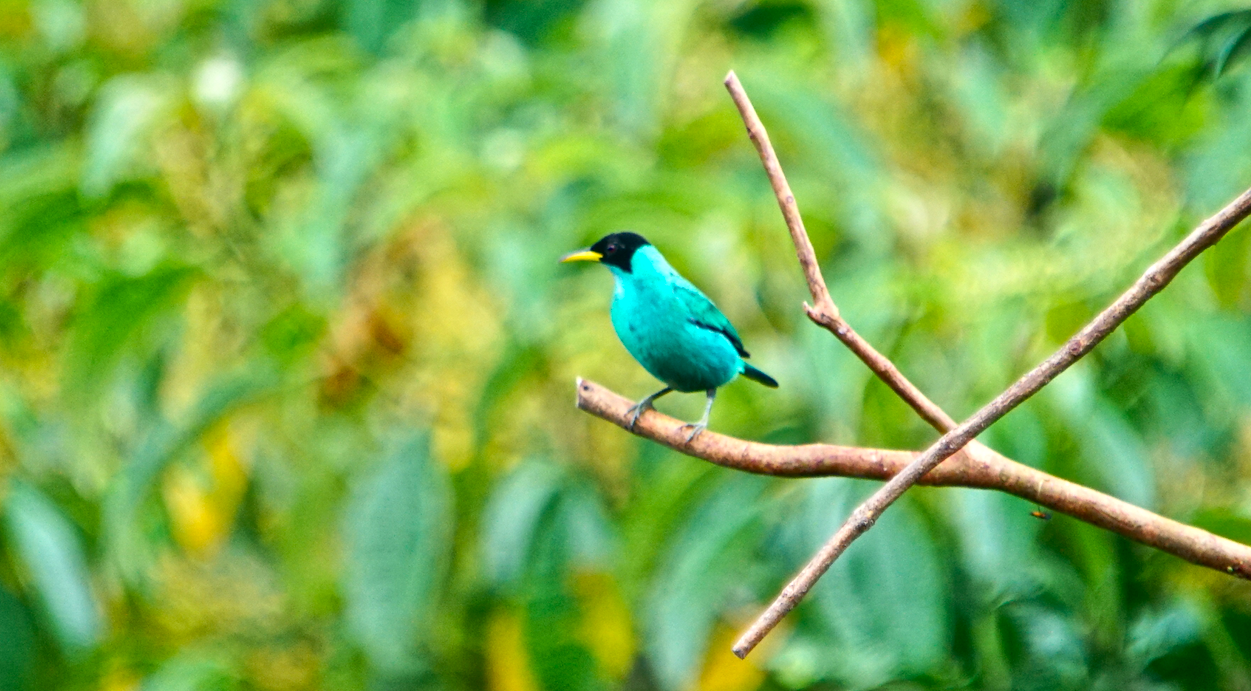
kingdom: Animalia
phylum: Chordata
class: Aves
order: Passeriformes
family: Thraupidae
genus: Chlorophanes
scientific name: Chlorophanes spiza
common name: Green honeycreeper
